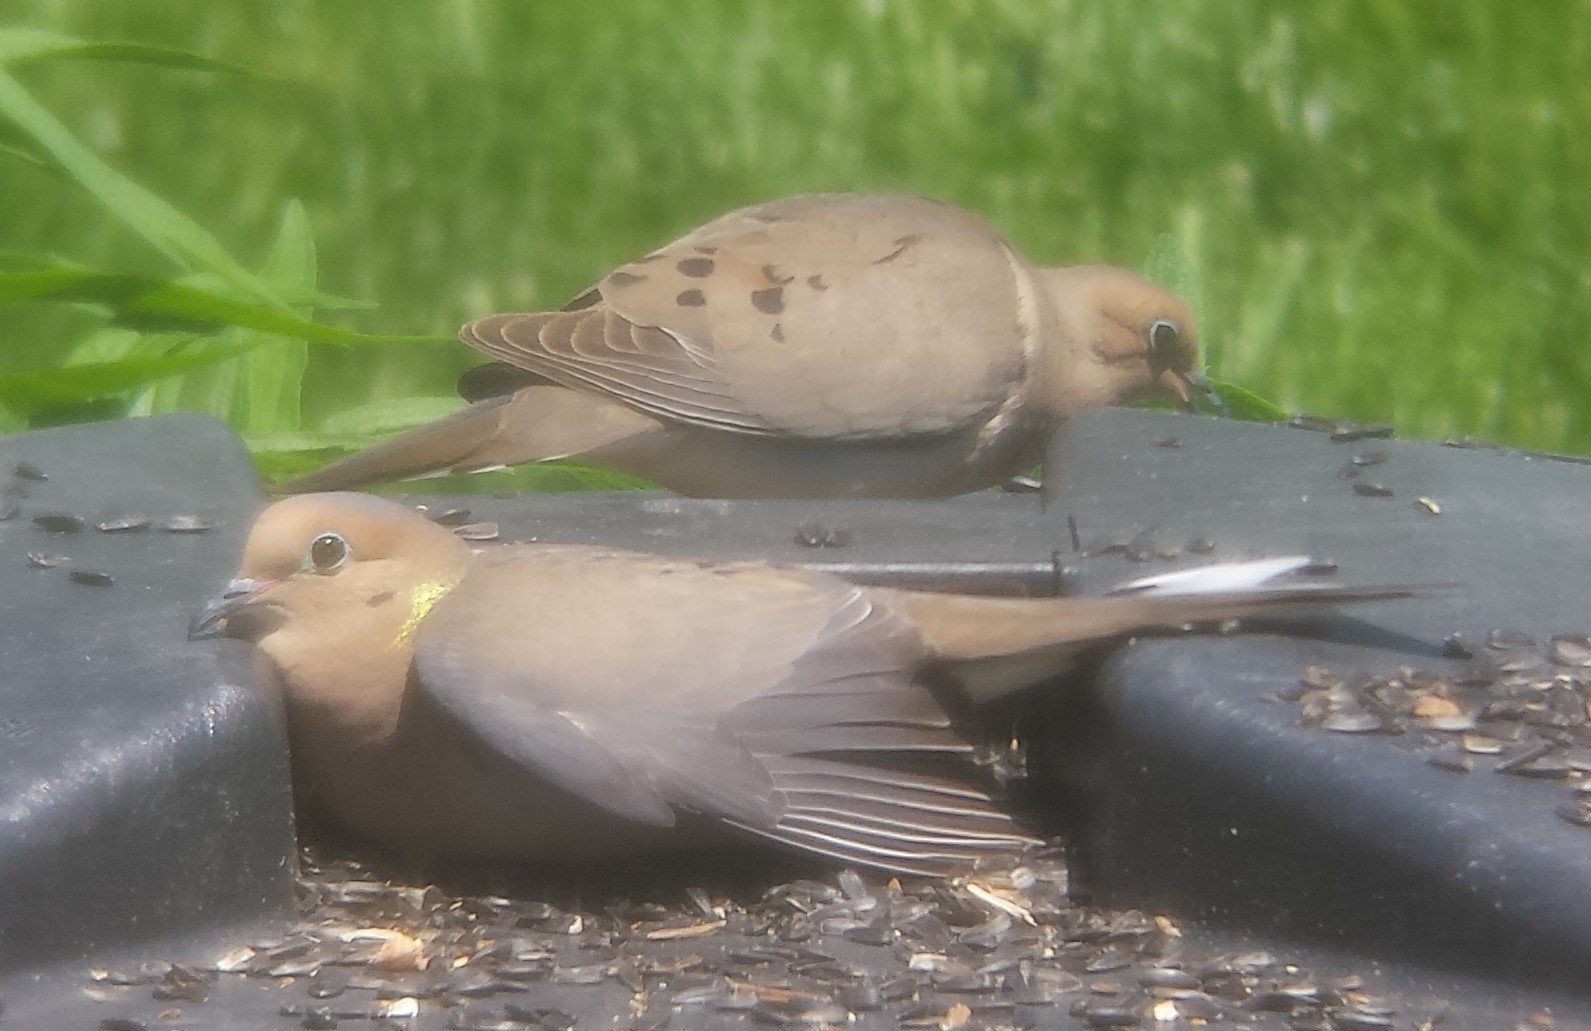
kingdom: Animalia
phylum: Chordata
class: Aves
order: Columbiformes
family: Columbidae
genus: Zenaida
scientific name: Zenaida macroura
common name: Mourning dove
